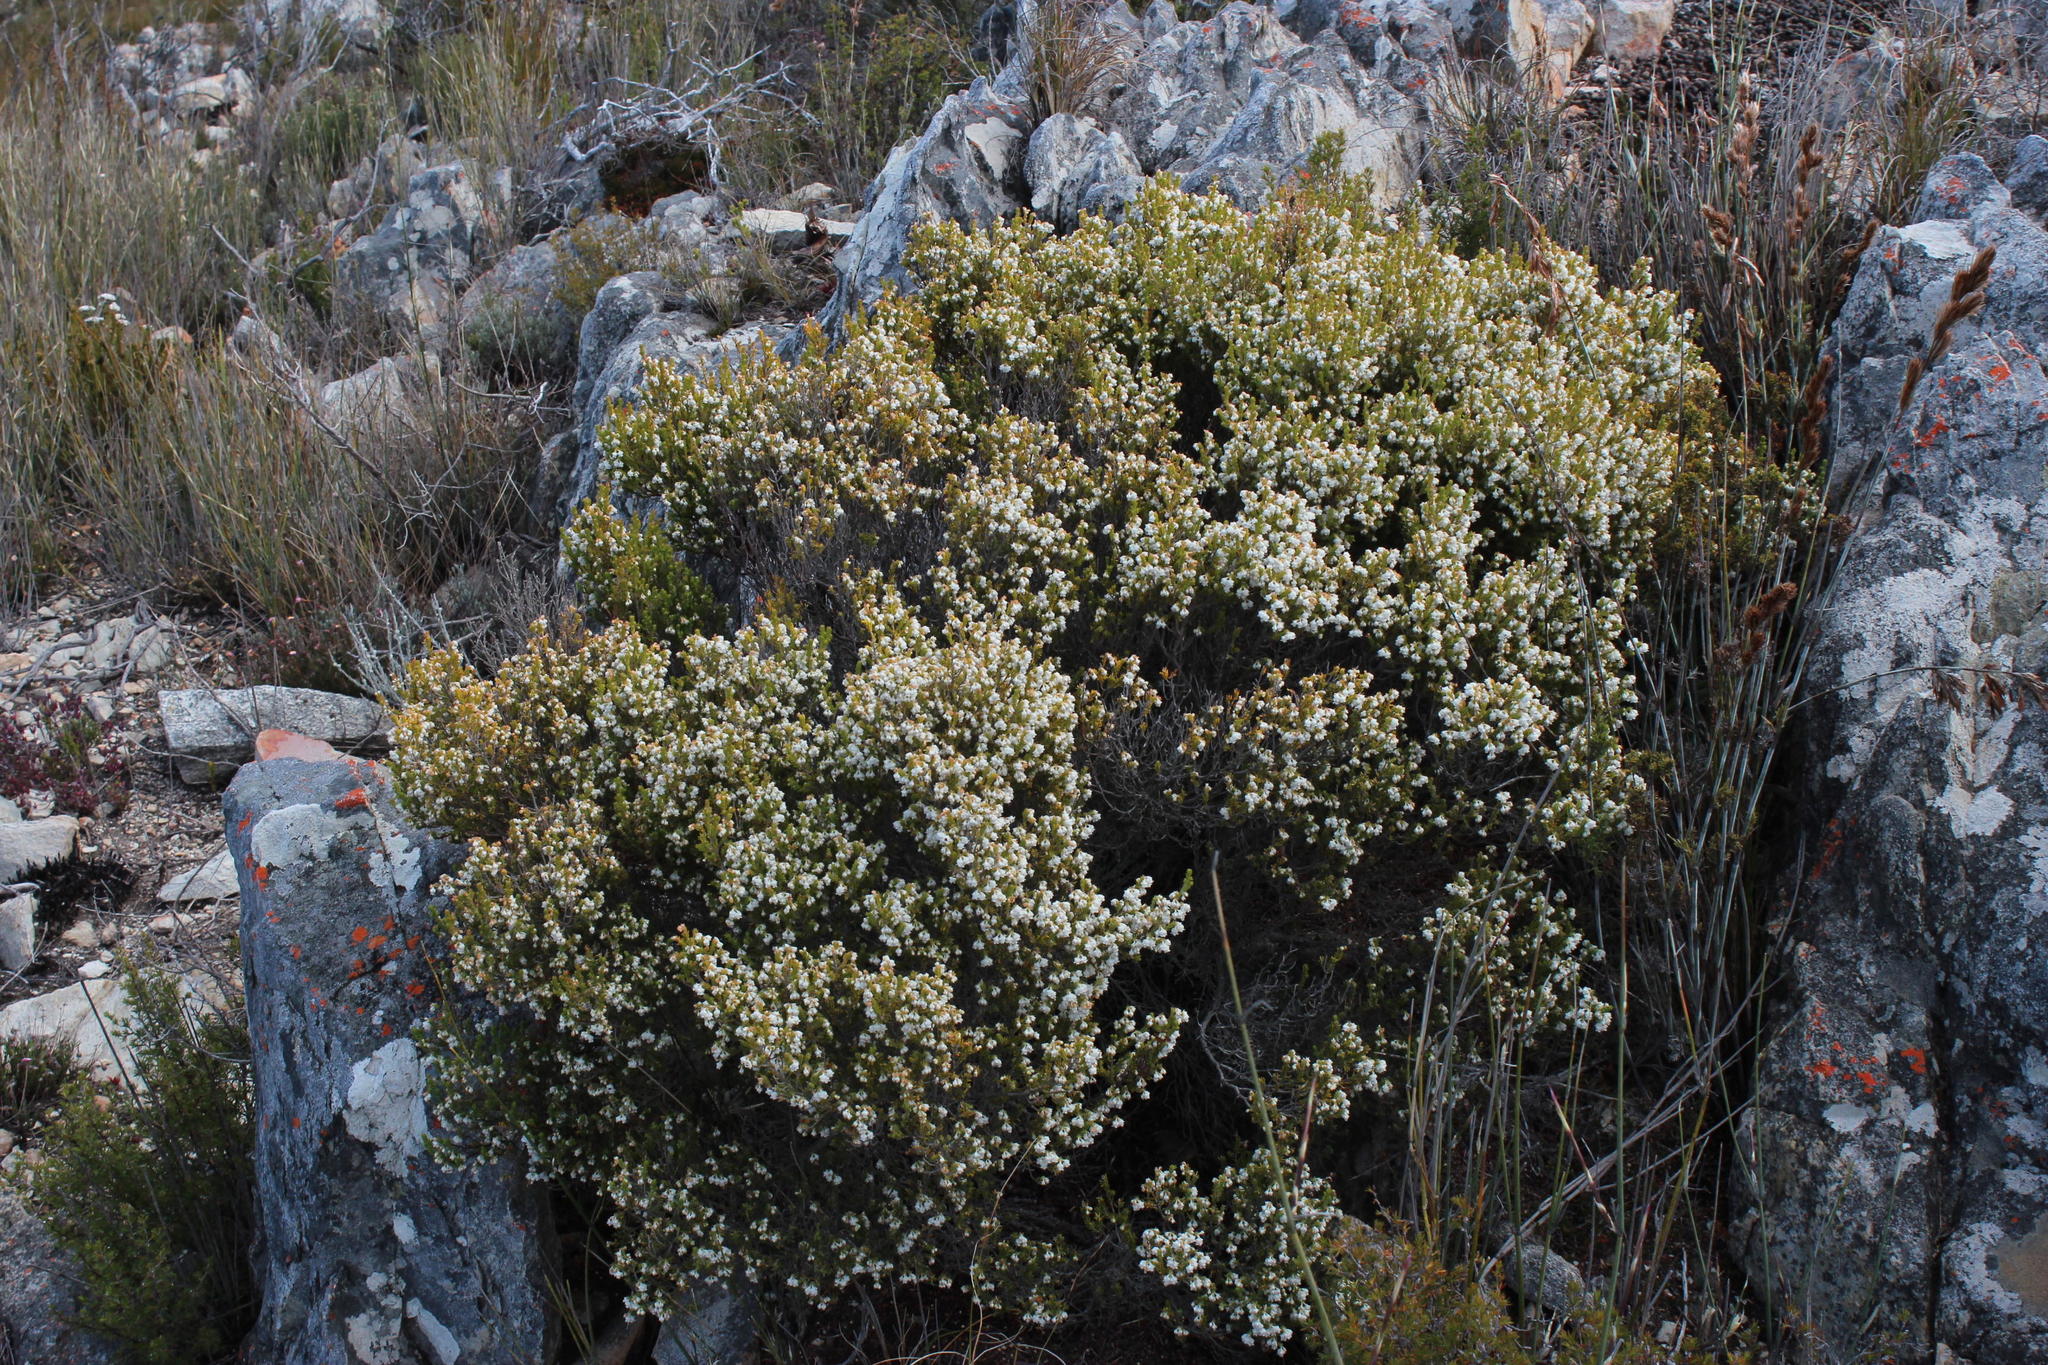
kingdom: Plantae
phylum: Tracheophyta
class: Magnoliopsida
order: Ericales
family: Ericaceae
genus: Erica
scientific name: Erica syngenesia
